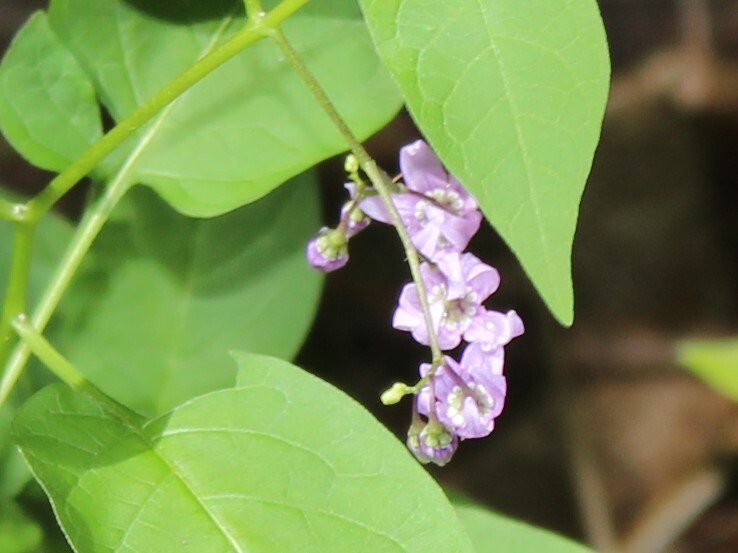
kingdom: Plantae
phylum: Tracheophyta
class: Magnoliopsida
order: Solanales
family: Solanaceae
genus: Solanum
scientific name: Solanum dulcamara
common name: Climbing nightshade
